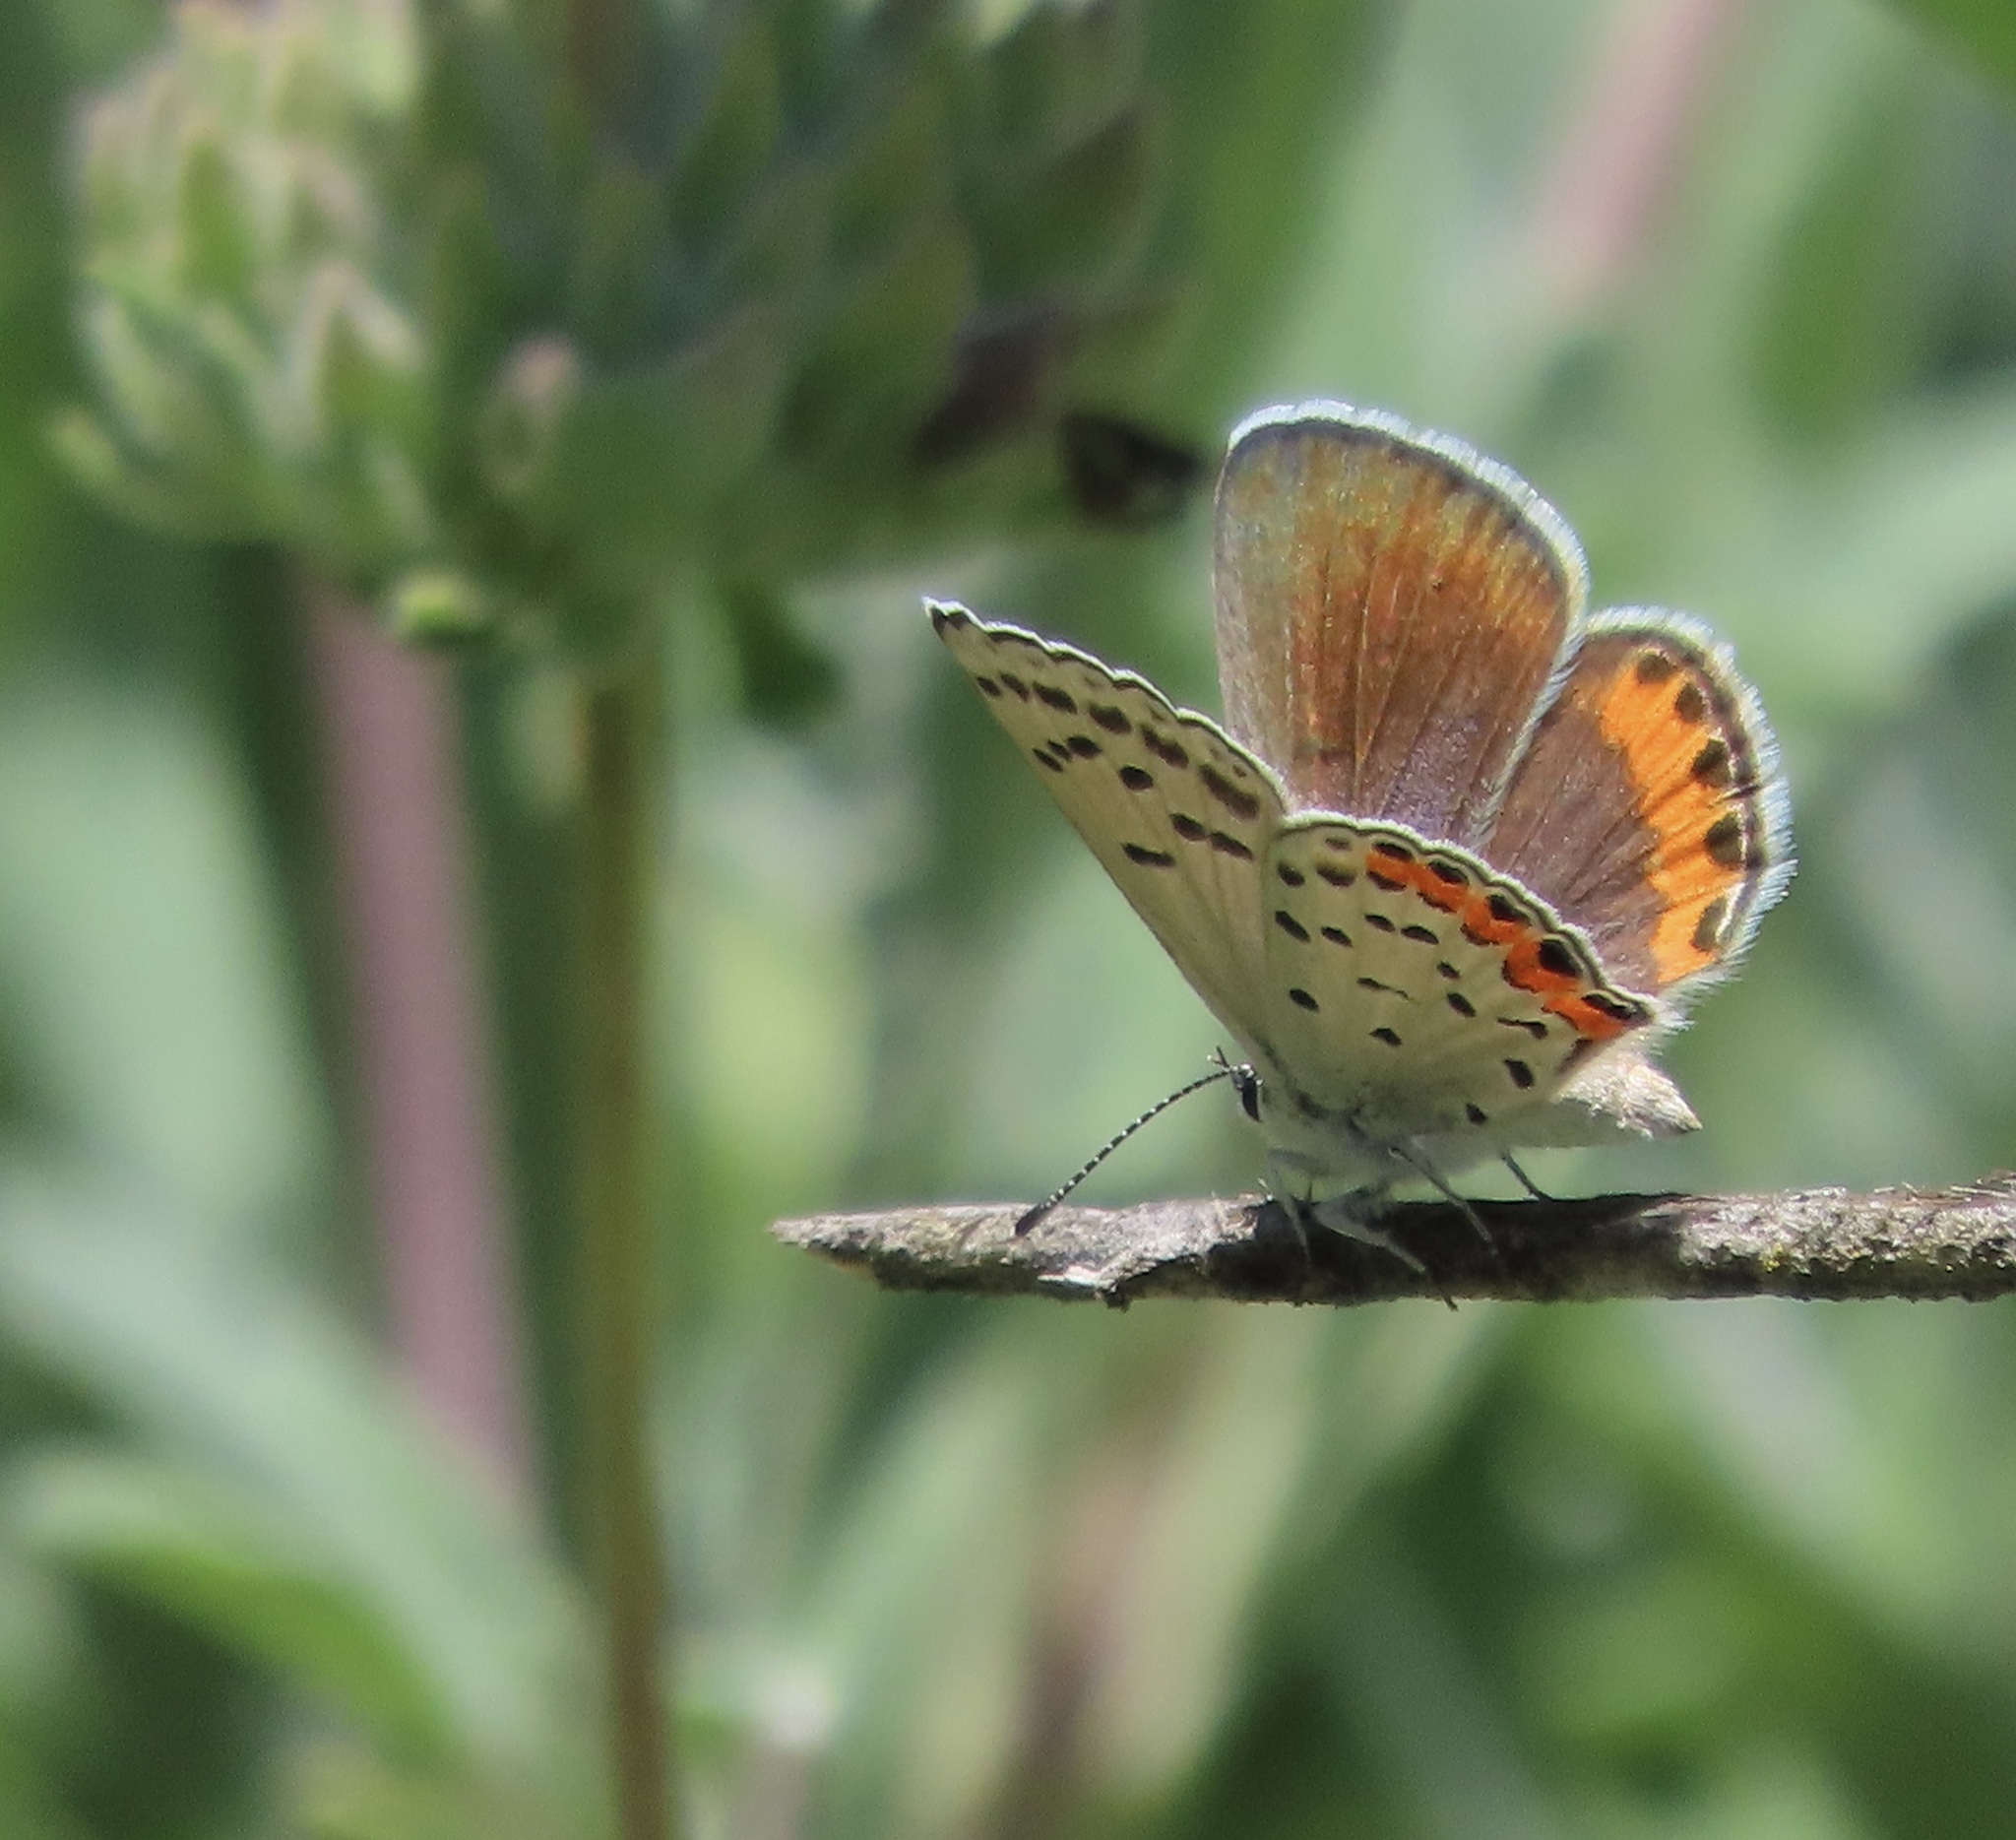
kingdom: Animalia
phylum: Arthropoda
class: Insecta
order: Lepidoptera
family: Lycaenidae
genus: Icaricia
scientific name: Icaricia acmon
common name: Acmon blue
